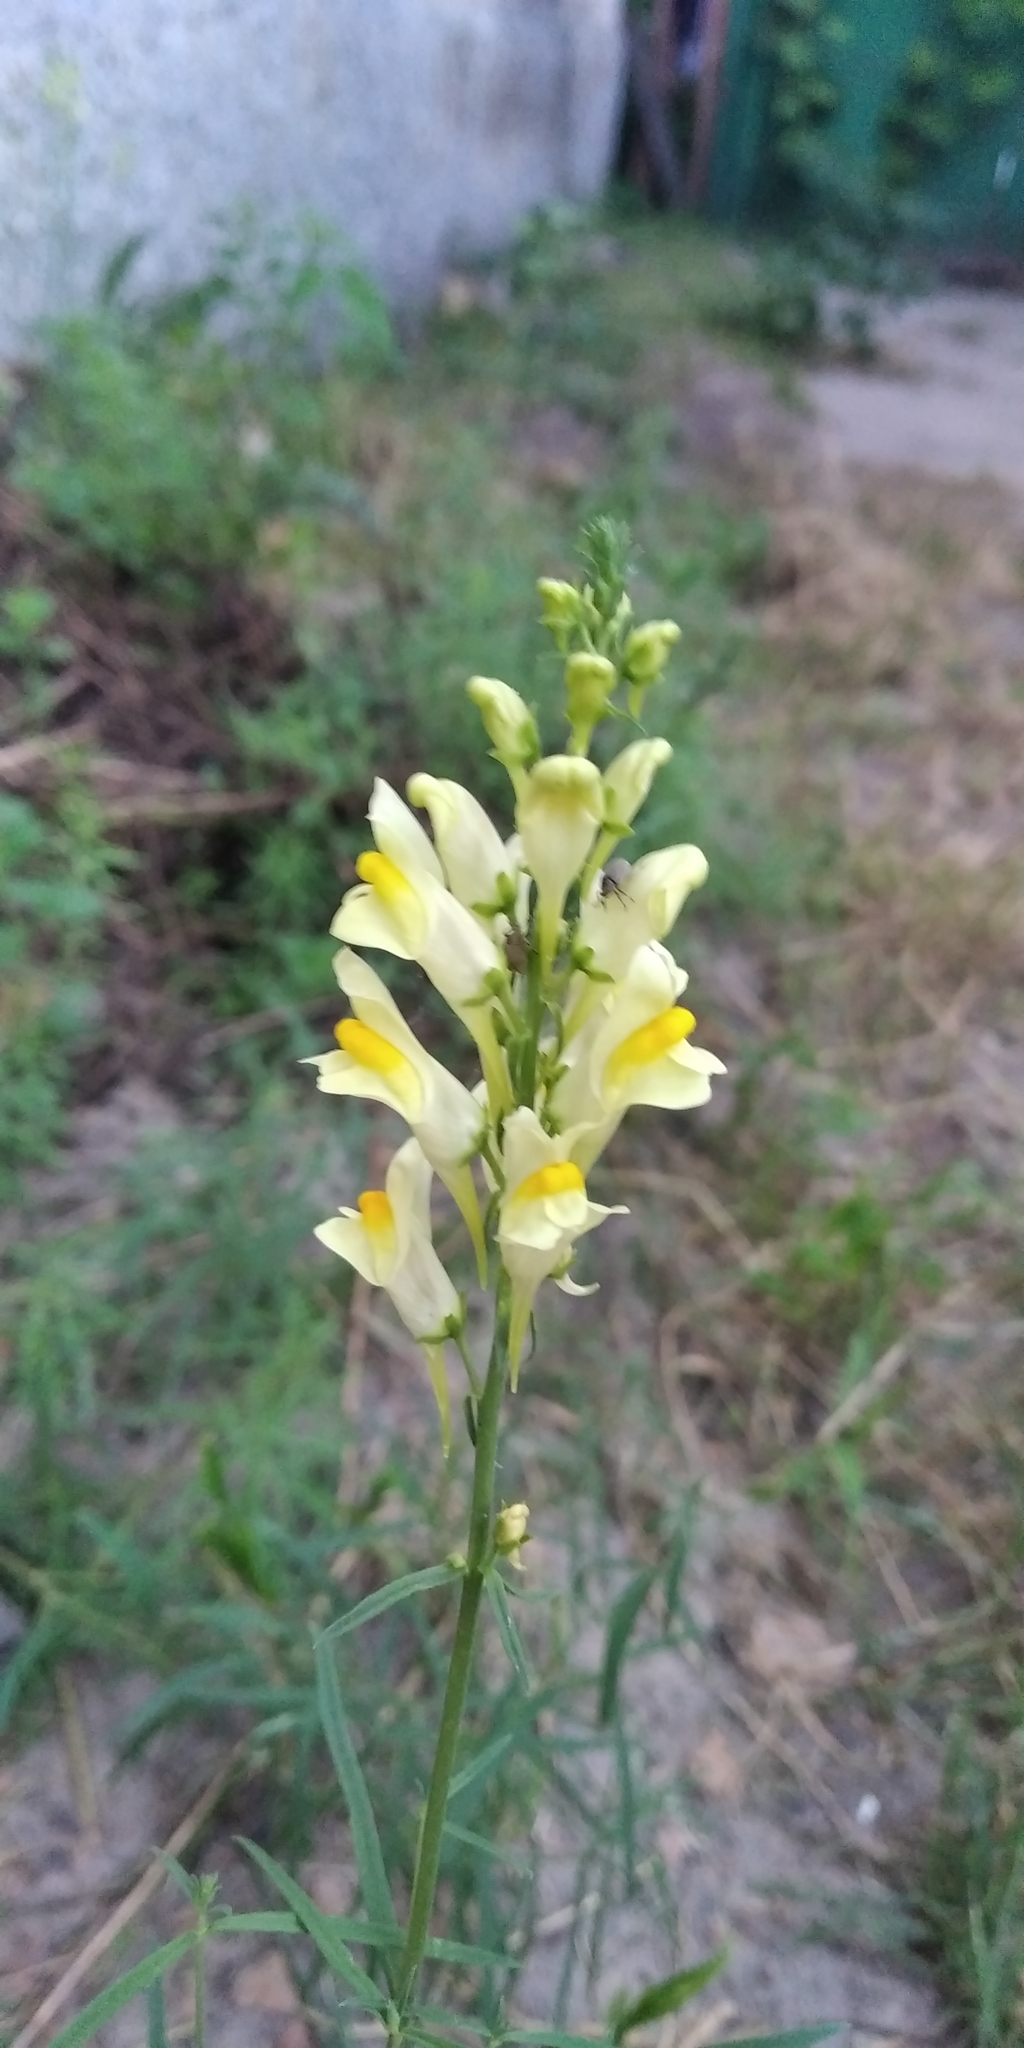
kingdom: Plantae
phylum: Tracheophyta
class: Magnoliopsida
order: Lamiales
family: Plantaginaceae
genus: Linaria
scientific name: Linaria vulgaris
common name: Butter and eggs
